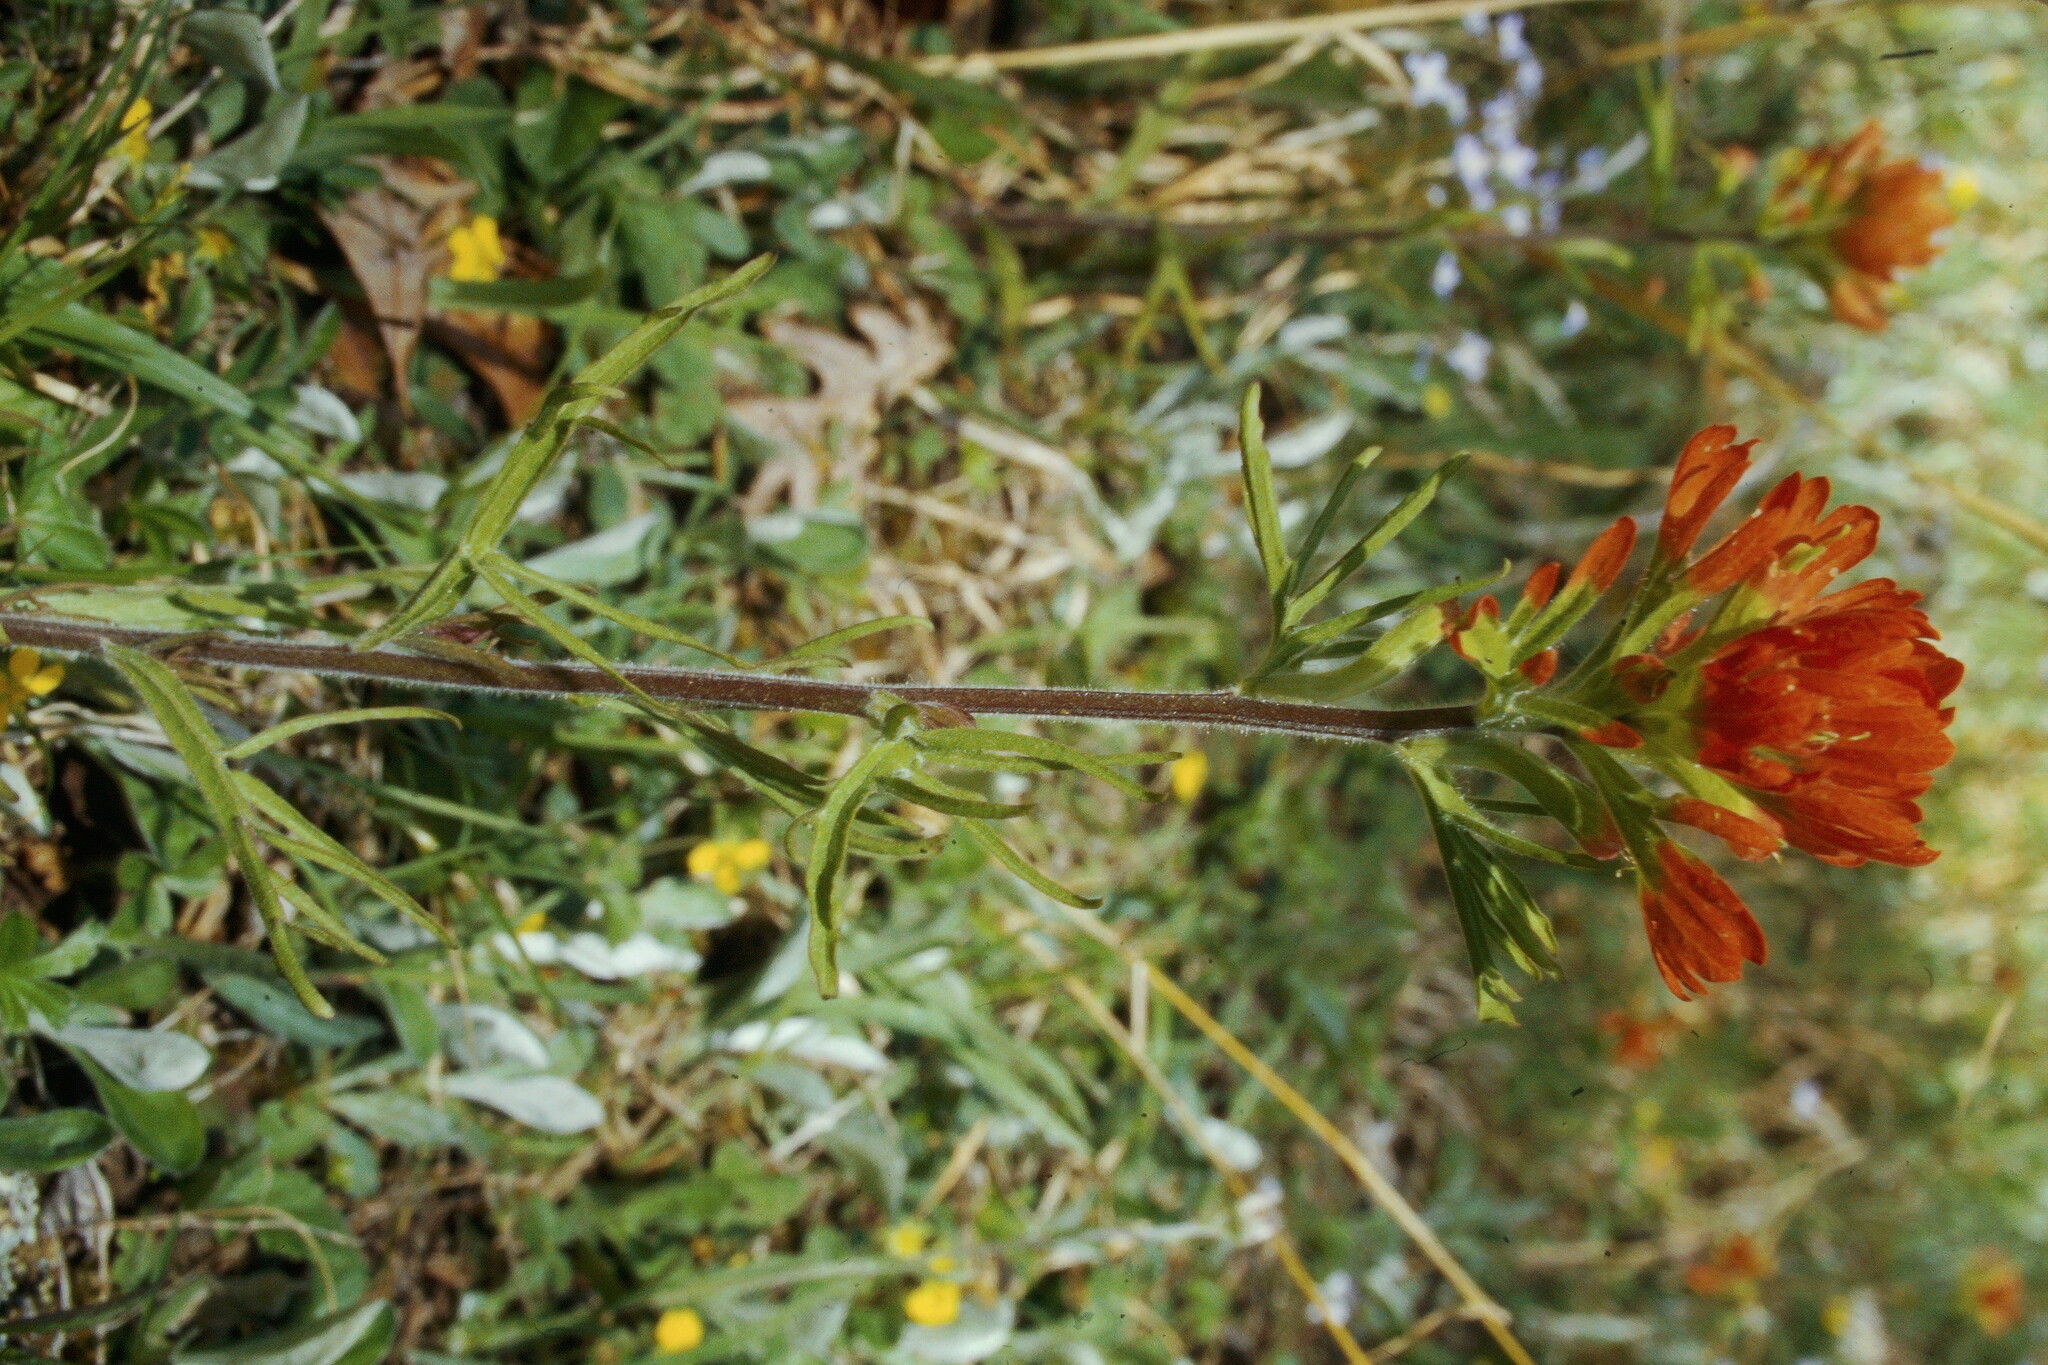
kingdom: Plantae
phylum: Tracheophyta
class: Magnoliopsida
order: Lamiales
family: Orobanchaceae
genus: Castilleja
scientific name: Castilleja coccinea
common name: Scarlet paintbrush
